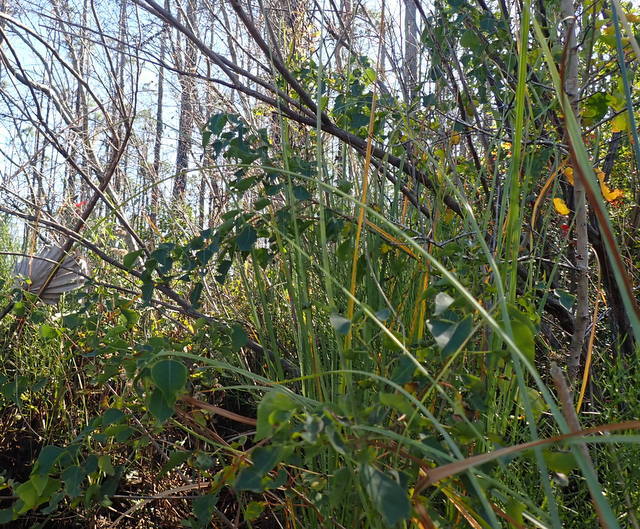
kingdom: Plantae
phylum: Tracheophyta
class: Magnoliopsida
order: Malpighiales
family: Euphorbiaceae
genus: Triadica
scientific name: Triadica sebifera
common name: Chinese tallow
